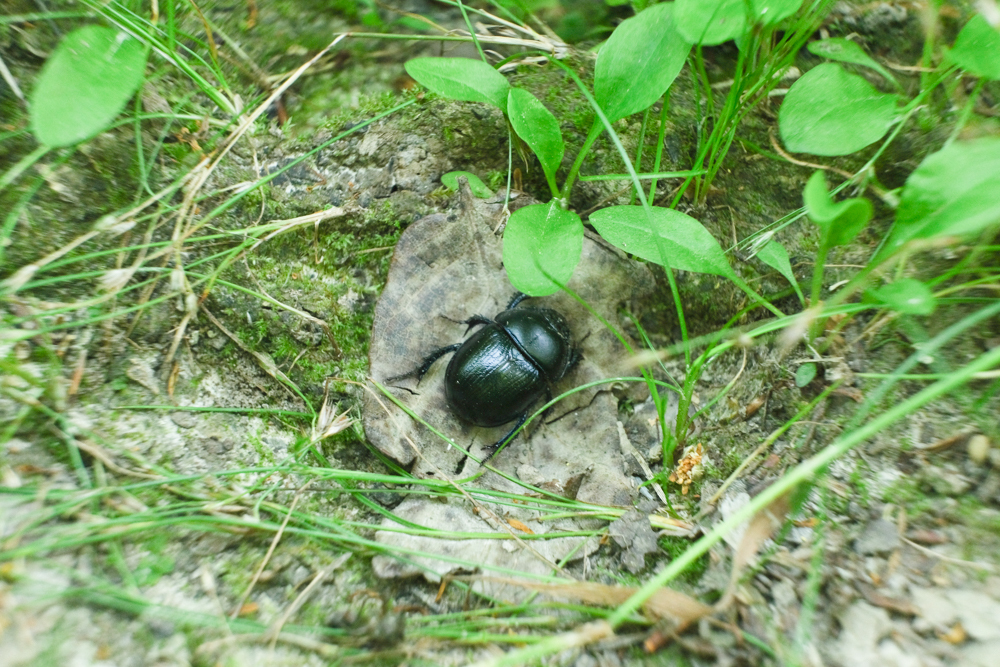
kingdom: Animalia
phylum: Arthropoda
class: Insecta
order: Coleoptera
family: Geotrupidae
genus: Anoplotrupes
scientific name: Anoplotrupes stercorosus
